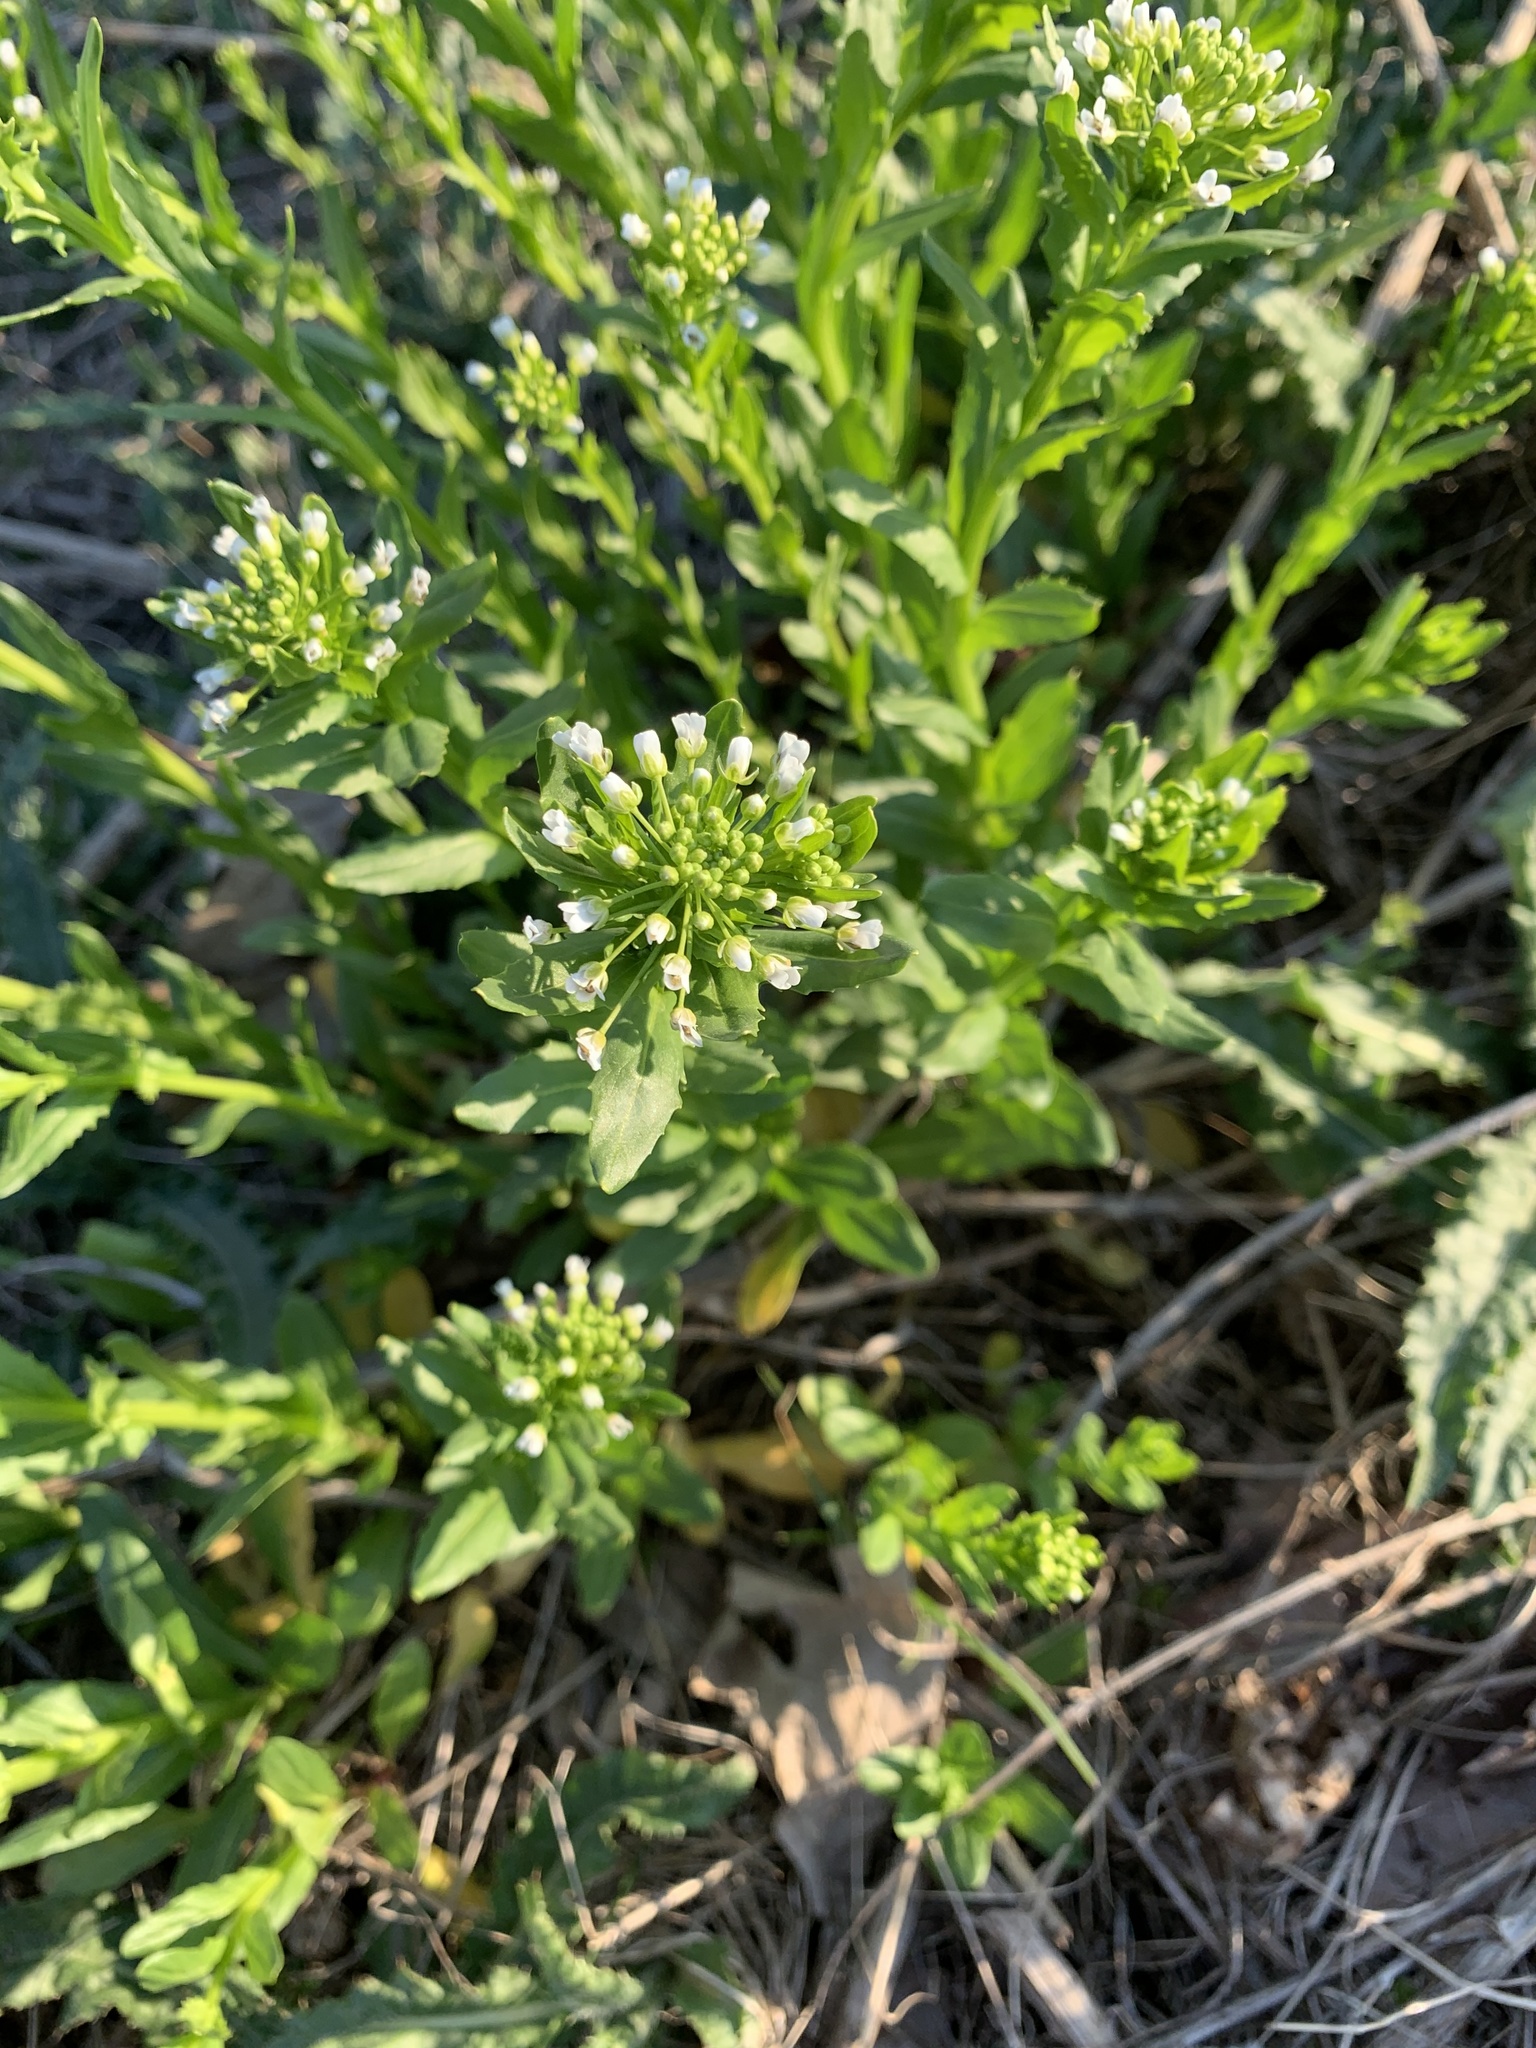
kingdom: Plantae
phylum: Tracheophyta
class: Magnoliopsida
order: Brassicales
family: Brassicaceae
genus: Thlaspi
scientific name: Thlaspi arvense
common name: Field pennycress
